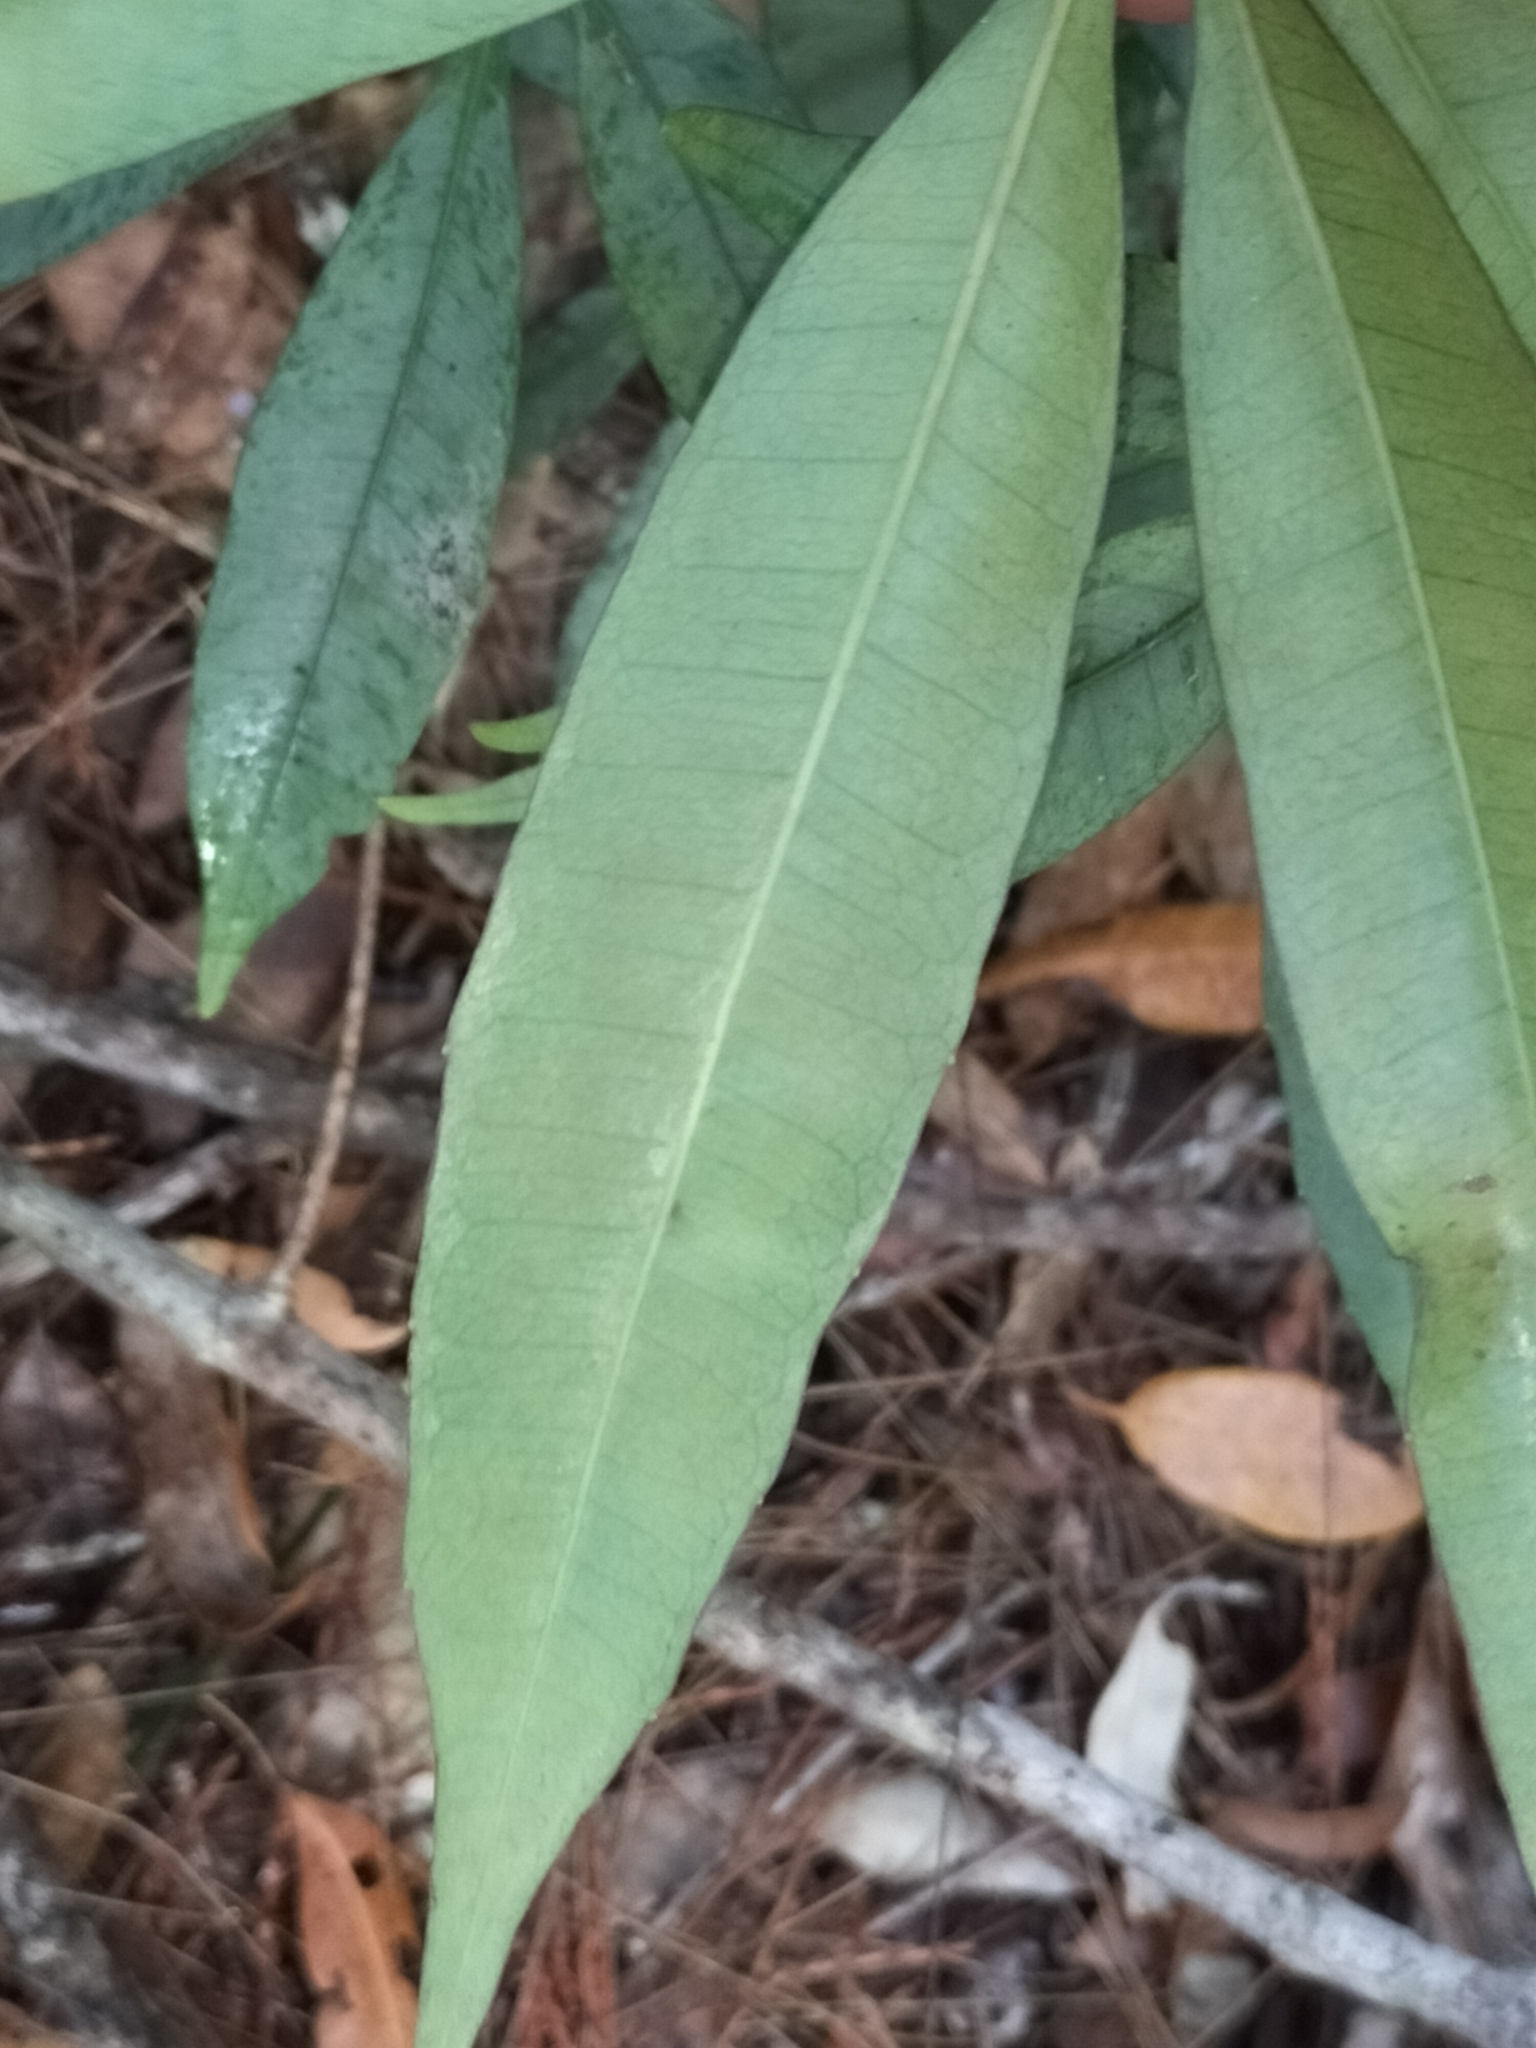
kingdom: Plantae
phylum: Tracheophyta
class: Magnoliopsida
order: Vitales
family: Vitaceae
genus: Nothocissus
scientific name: Nothocissus penninervis
